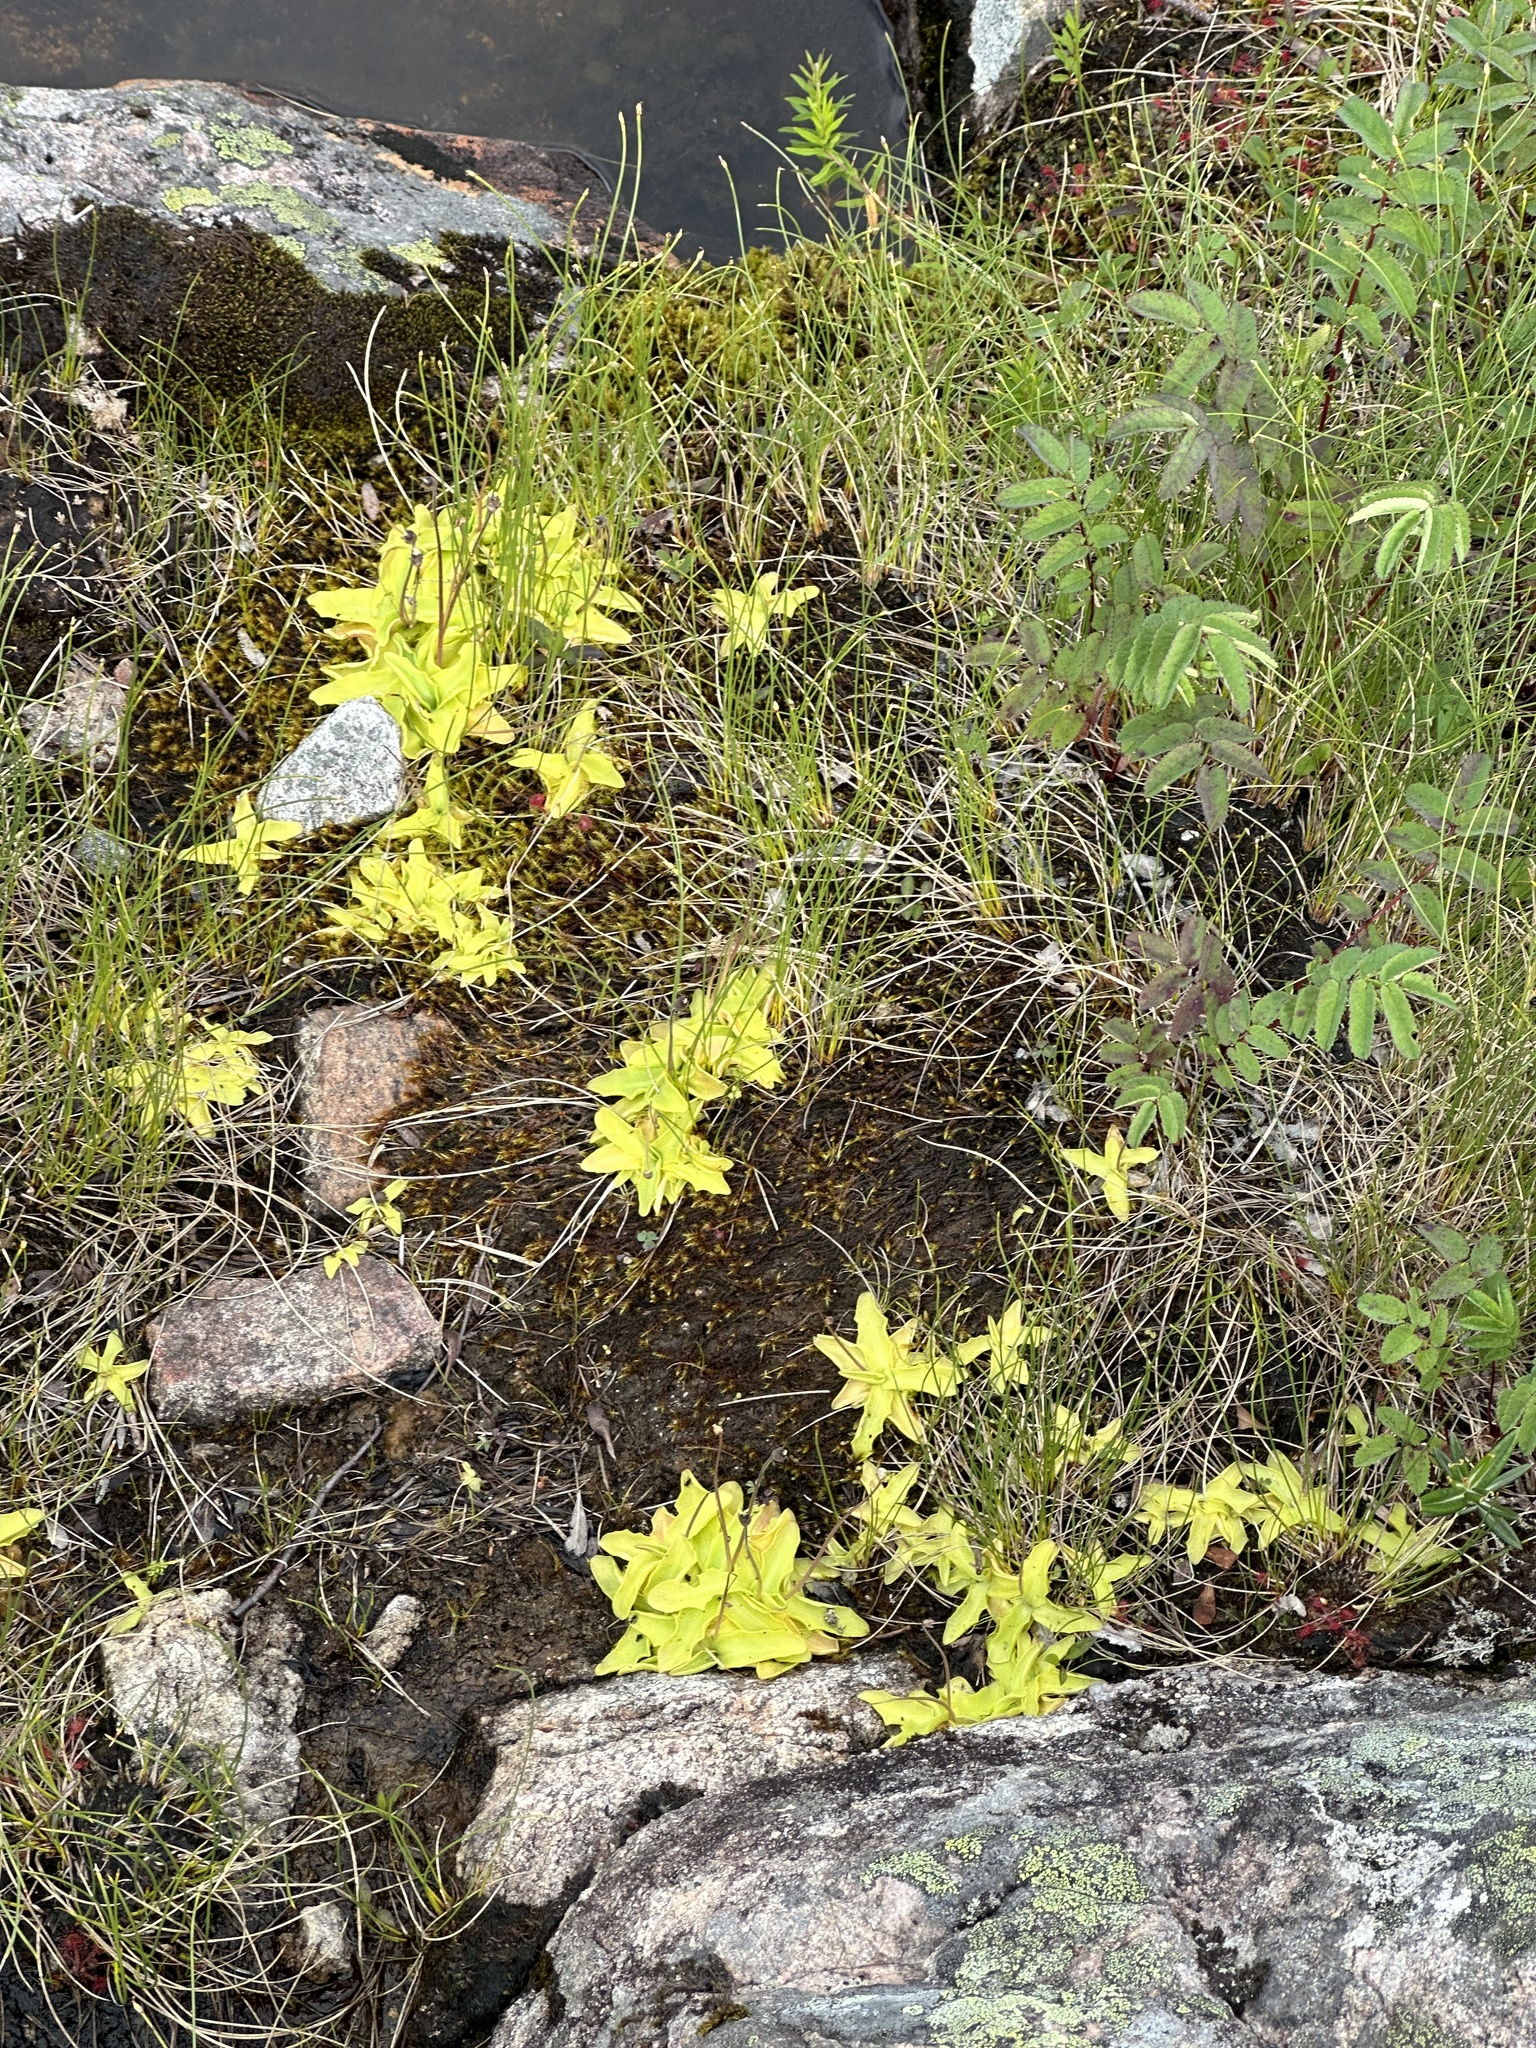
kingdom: Plantae
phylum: Tracheophyta
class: Magnoliopsida
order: Lamiales
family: Lentibulariaceae
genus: Pinguicula
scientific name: Pinguicula vulgaris
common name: Common butterwort
